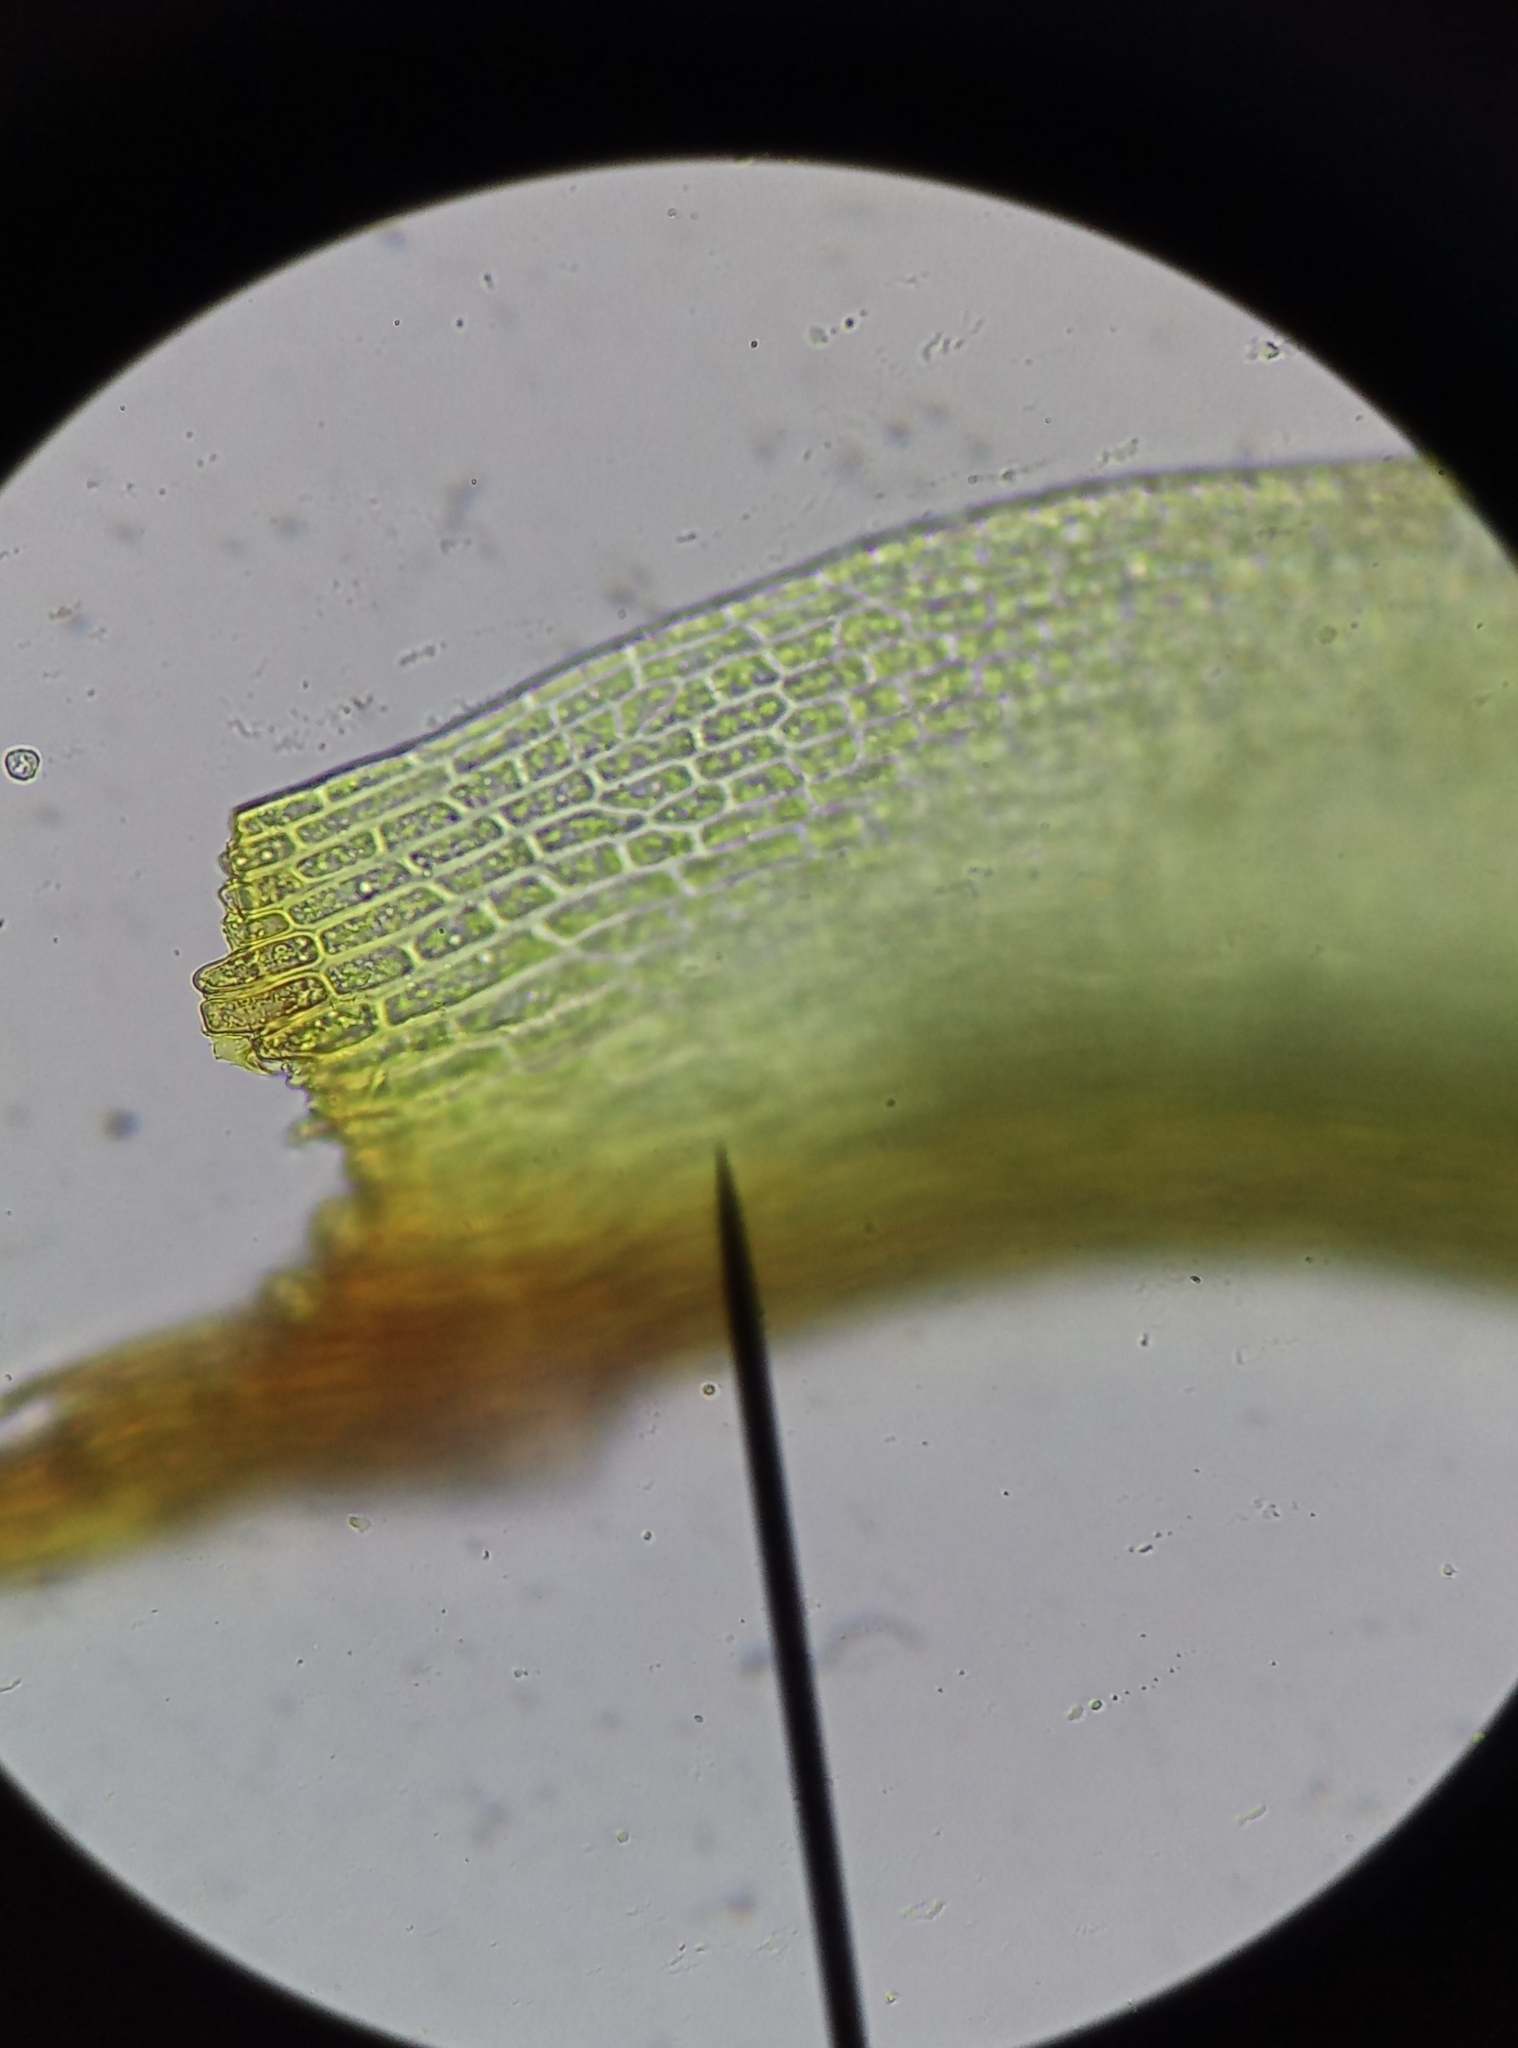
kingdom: Plantae
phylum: Bryophyta
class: Bryopsida
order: Pottiales
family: Pottiaceae
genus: Streblotrichum
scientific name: Streblotrichum convolutum
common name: Lesser bird's-claw beard-moss
